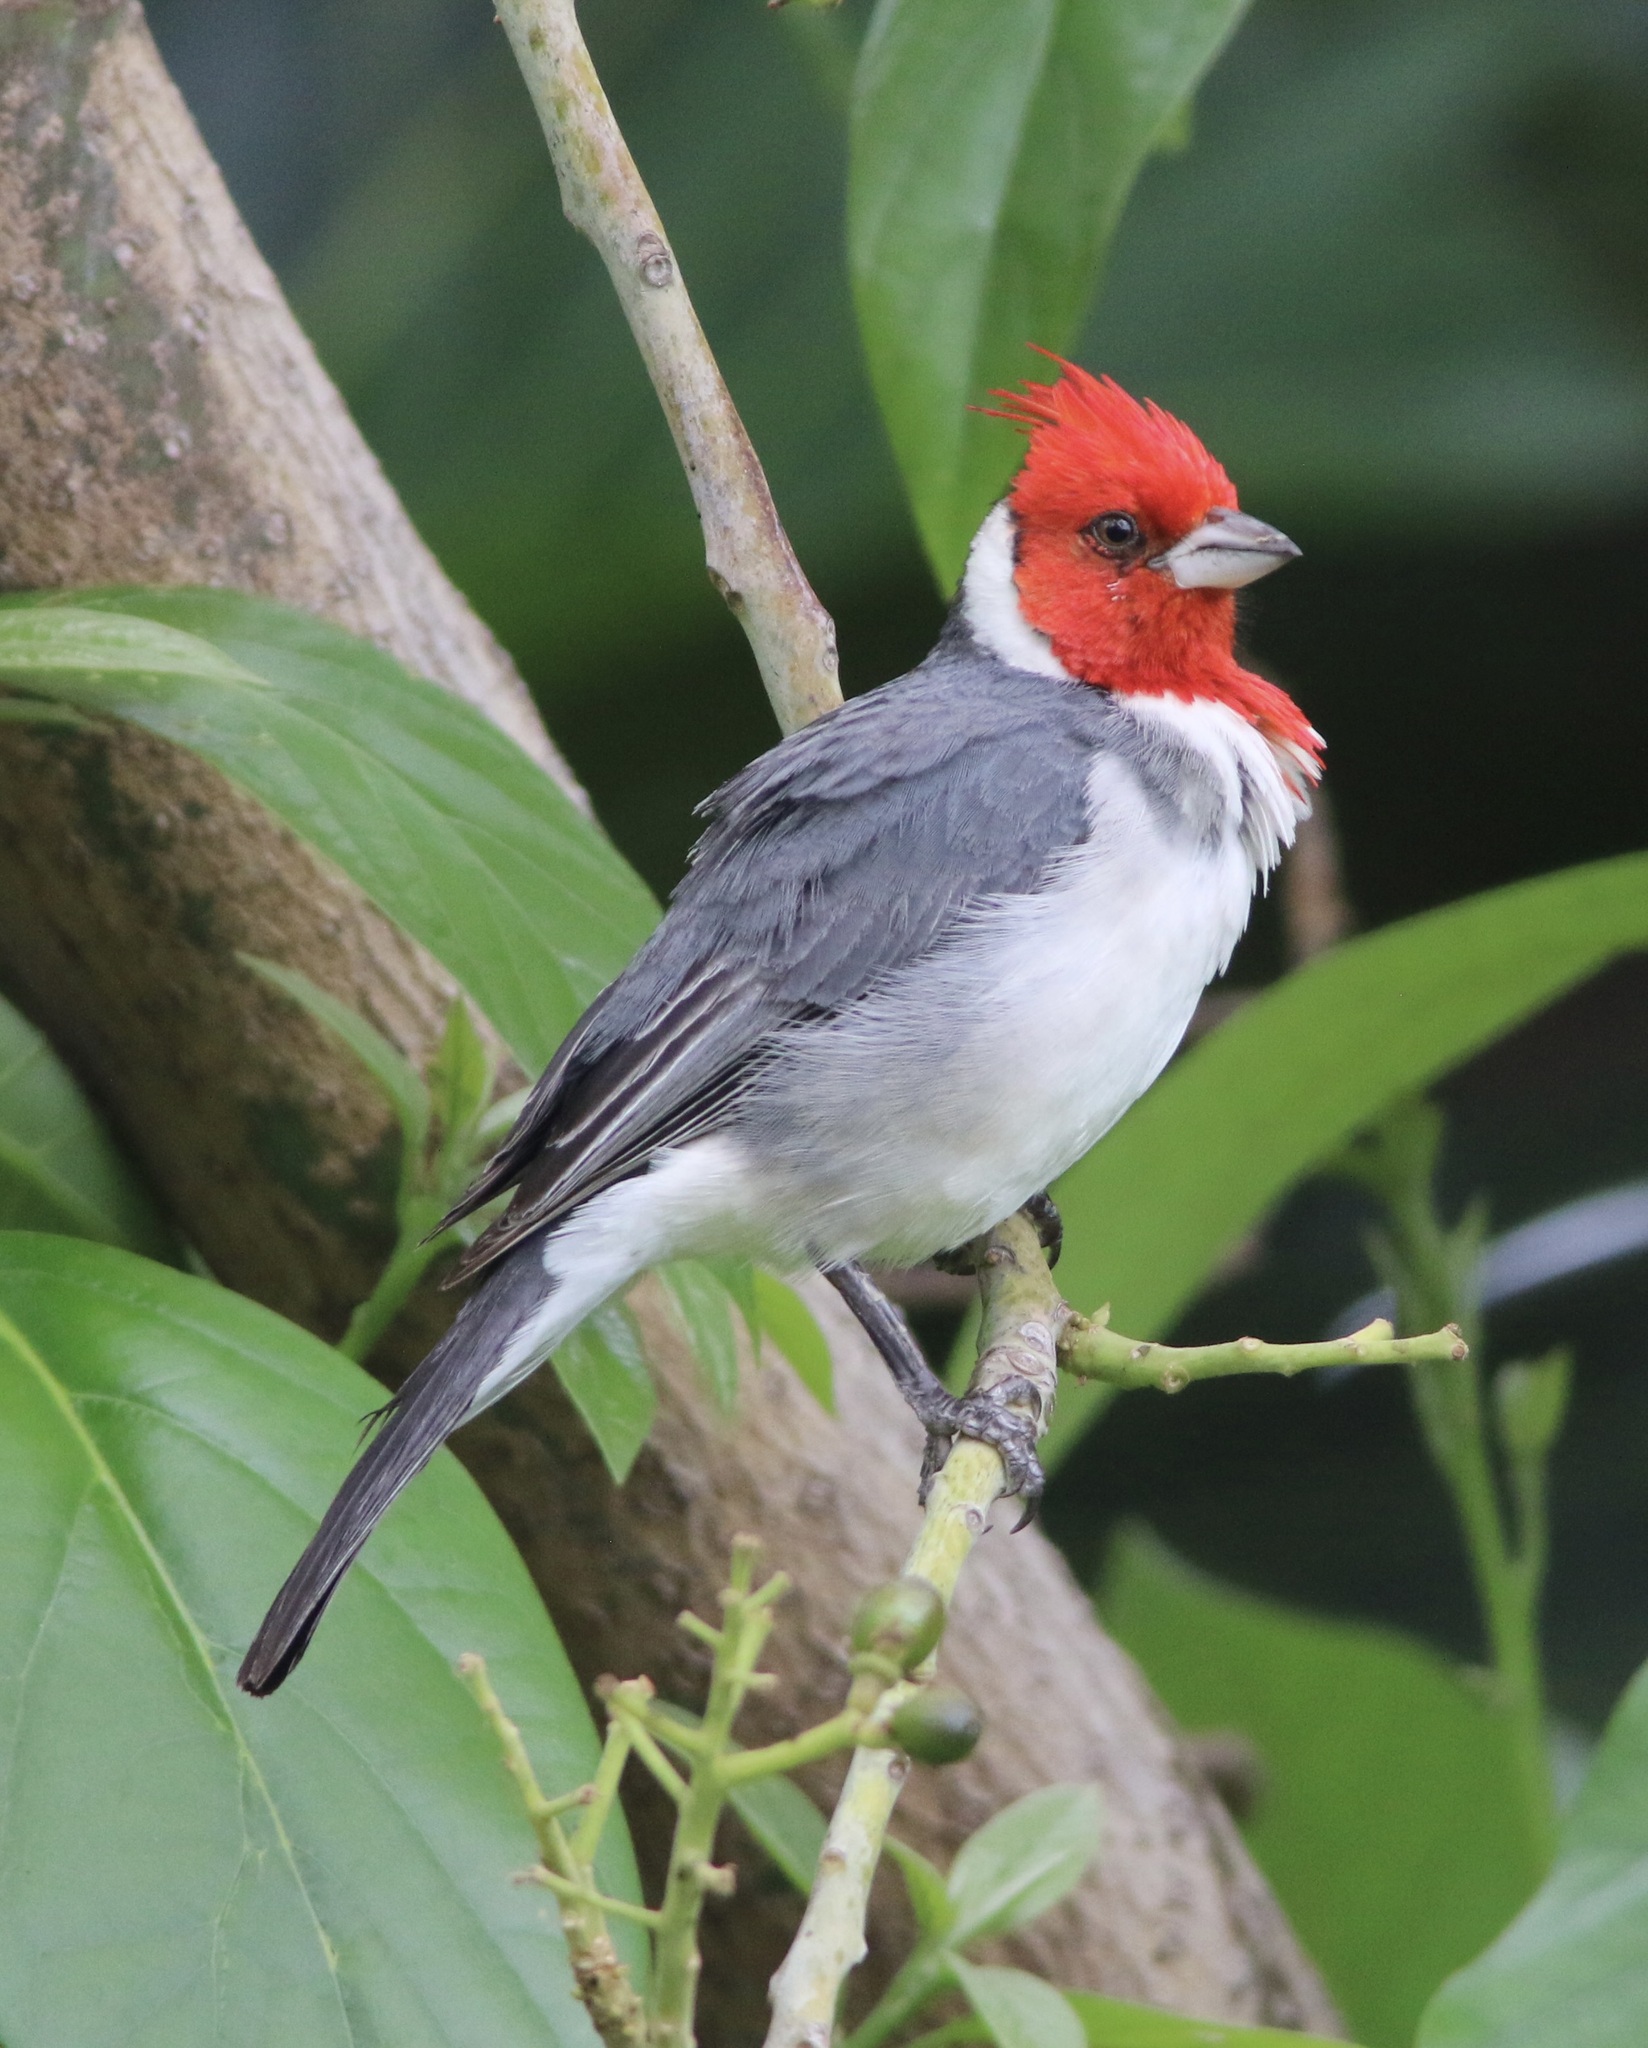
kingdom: Animalia
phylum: Chordata
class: Aves
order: Passeriformes
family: Thraupidae
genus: Paroaria
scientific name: Paroaria coronata
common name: Red-crested cardinal
